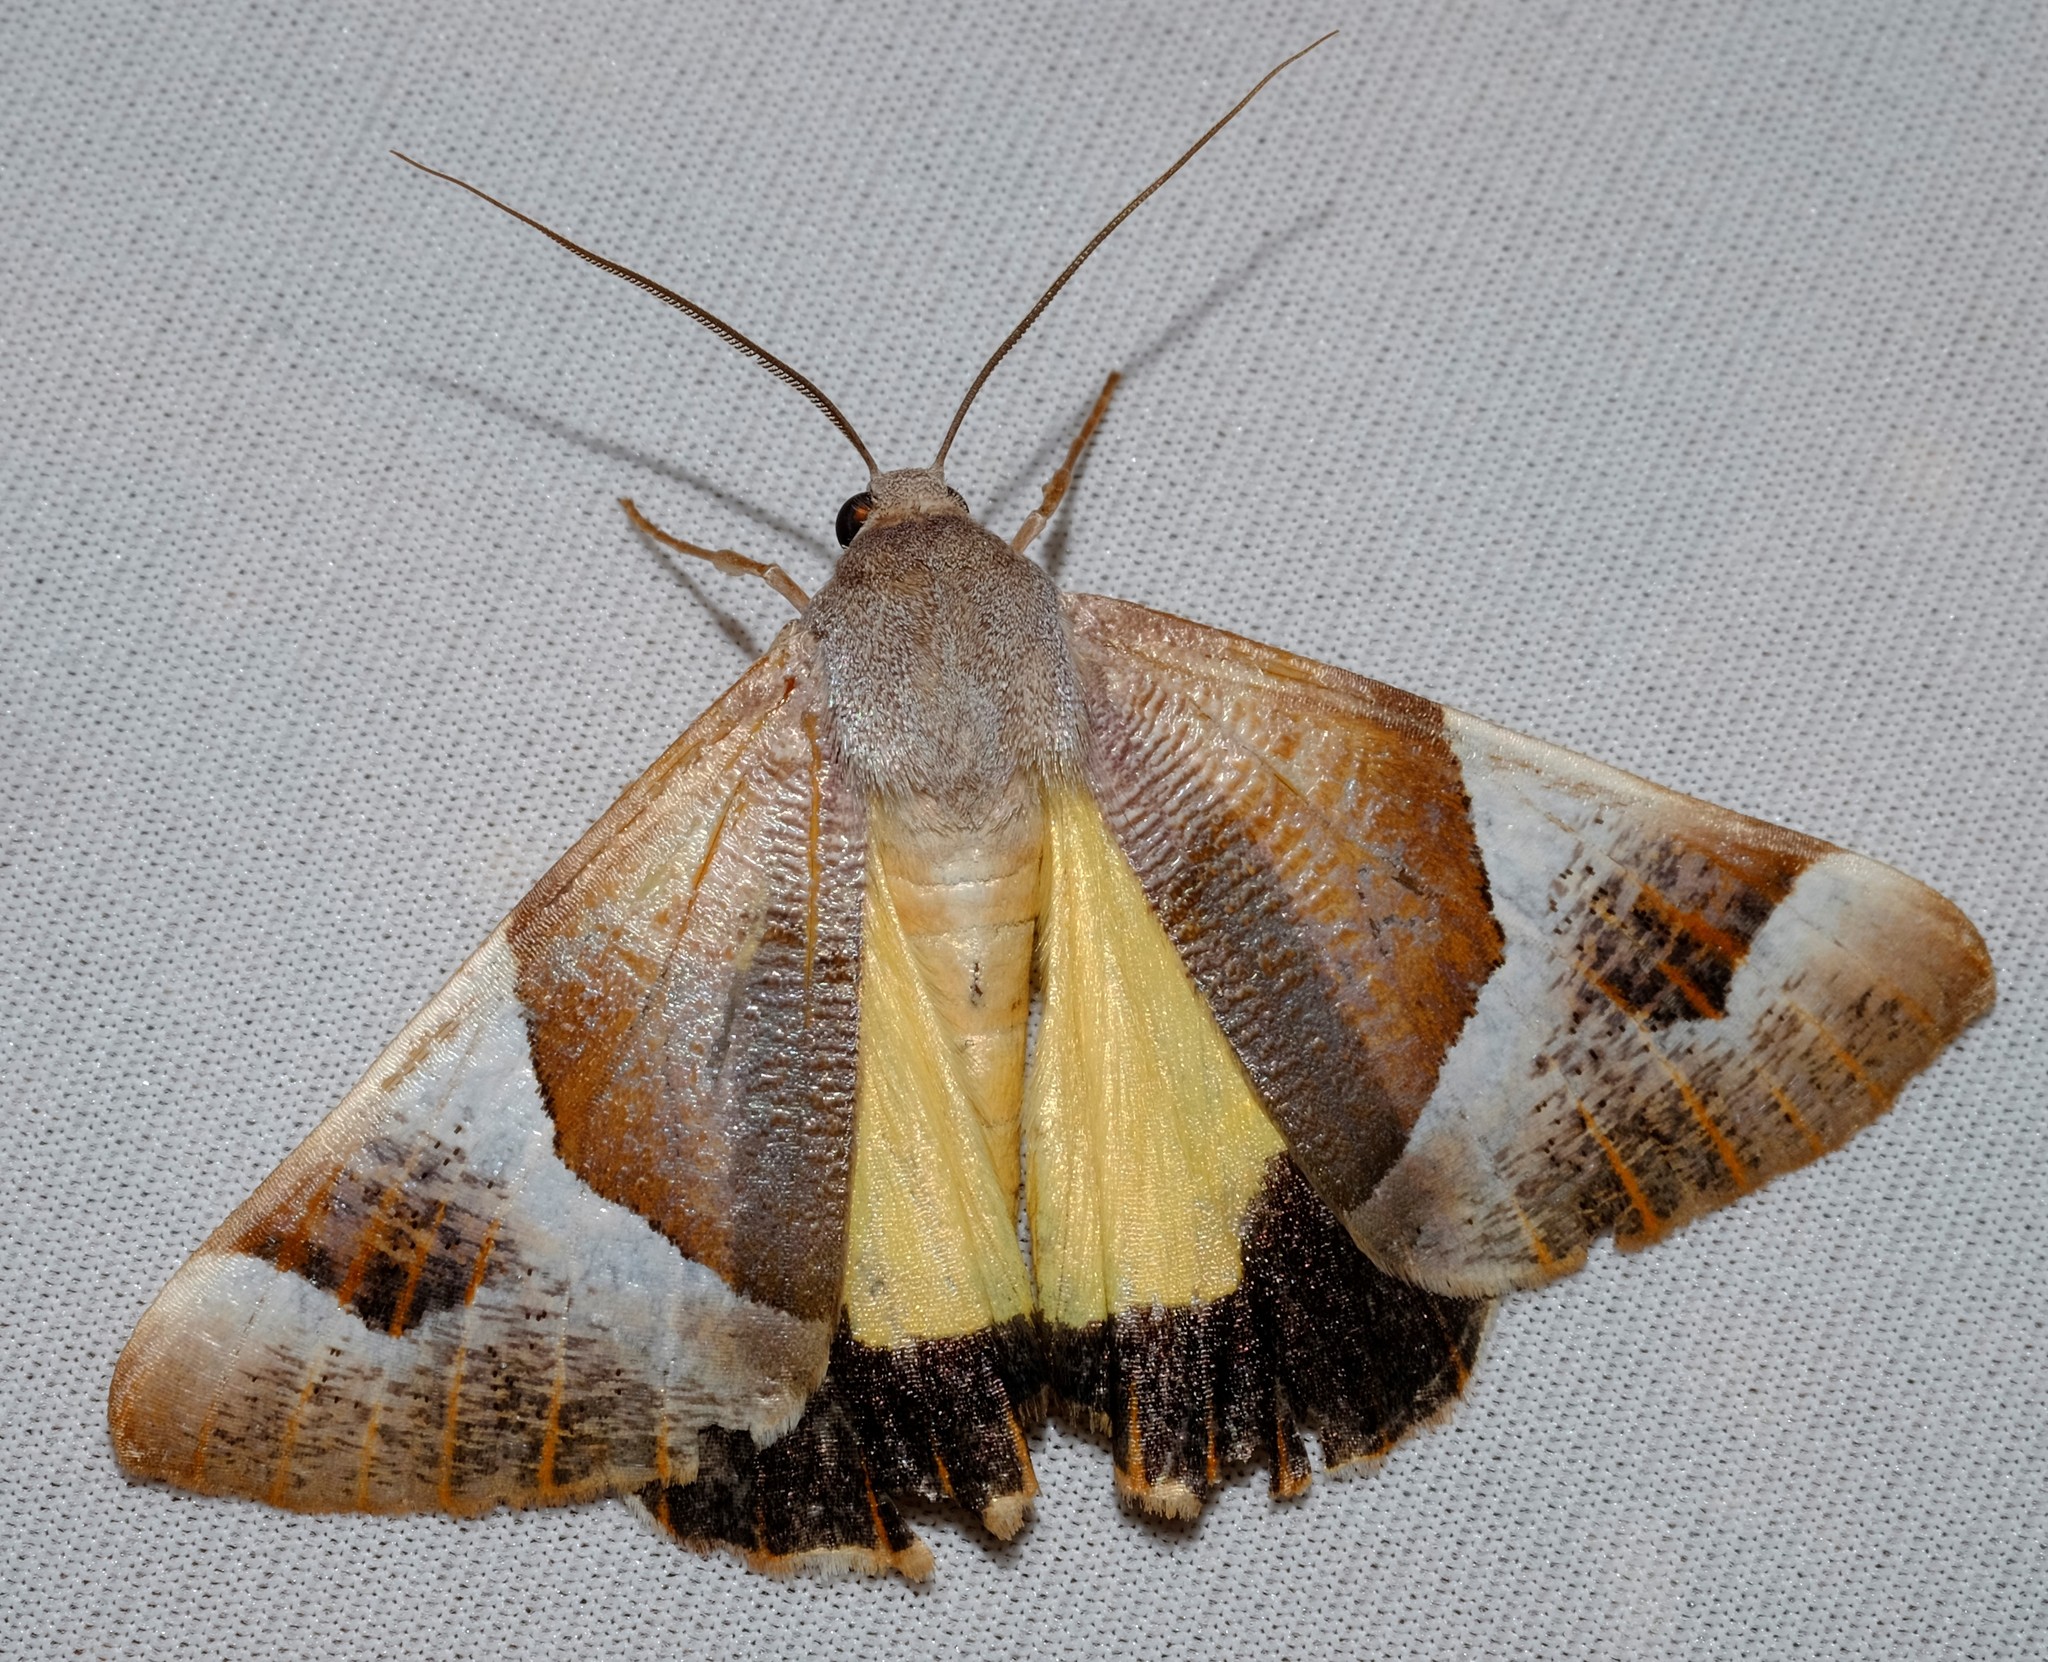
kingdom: Animalia
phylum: Arthropoda
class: Insecta
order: Lepidoptera
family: Geometridae
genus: Niceteria
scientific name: Niceteria macrocosma
